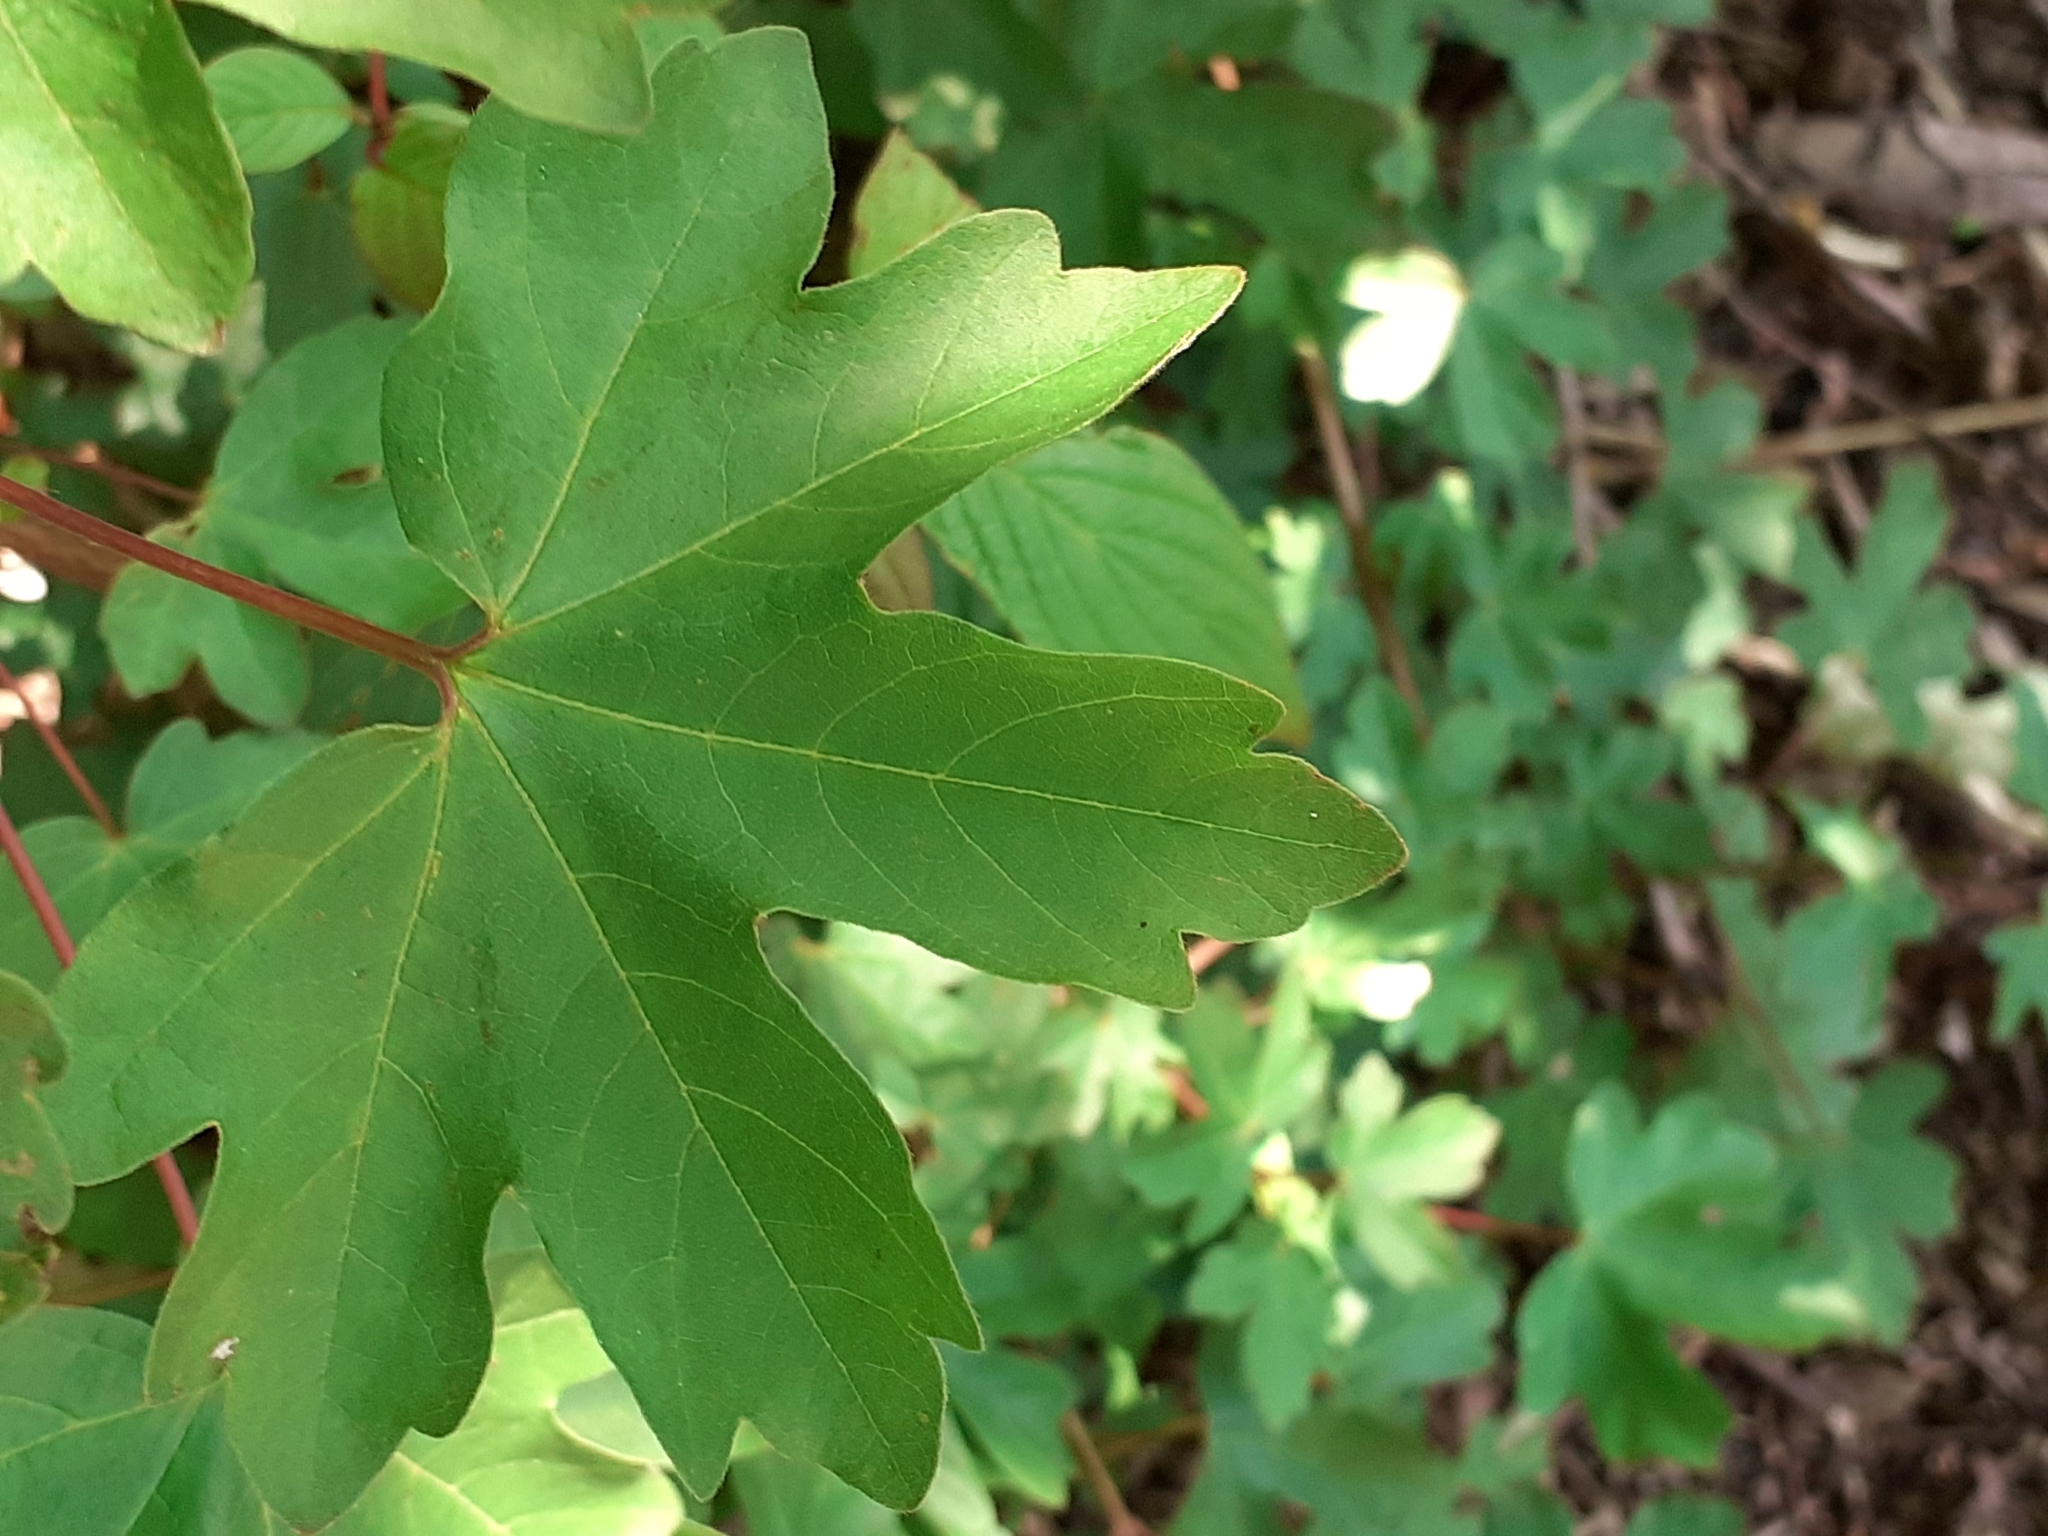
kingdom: Plantae
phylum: Tracheophyta
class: Magnoliopsida
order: Sapindales
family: Sapindaceae
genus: Acer
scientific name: Acer campestre
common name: Field maple
